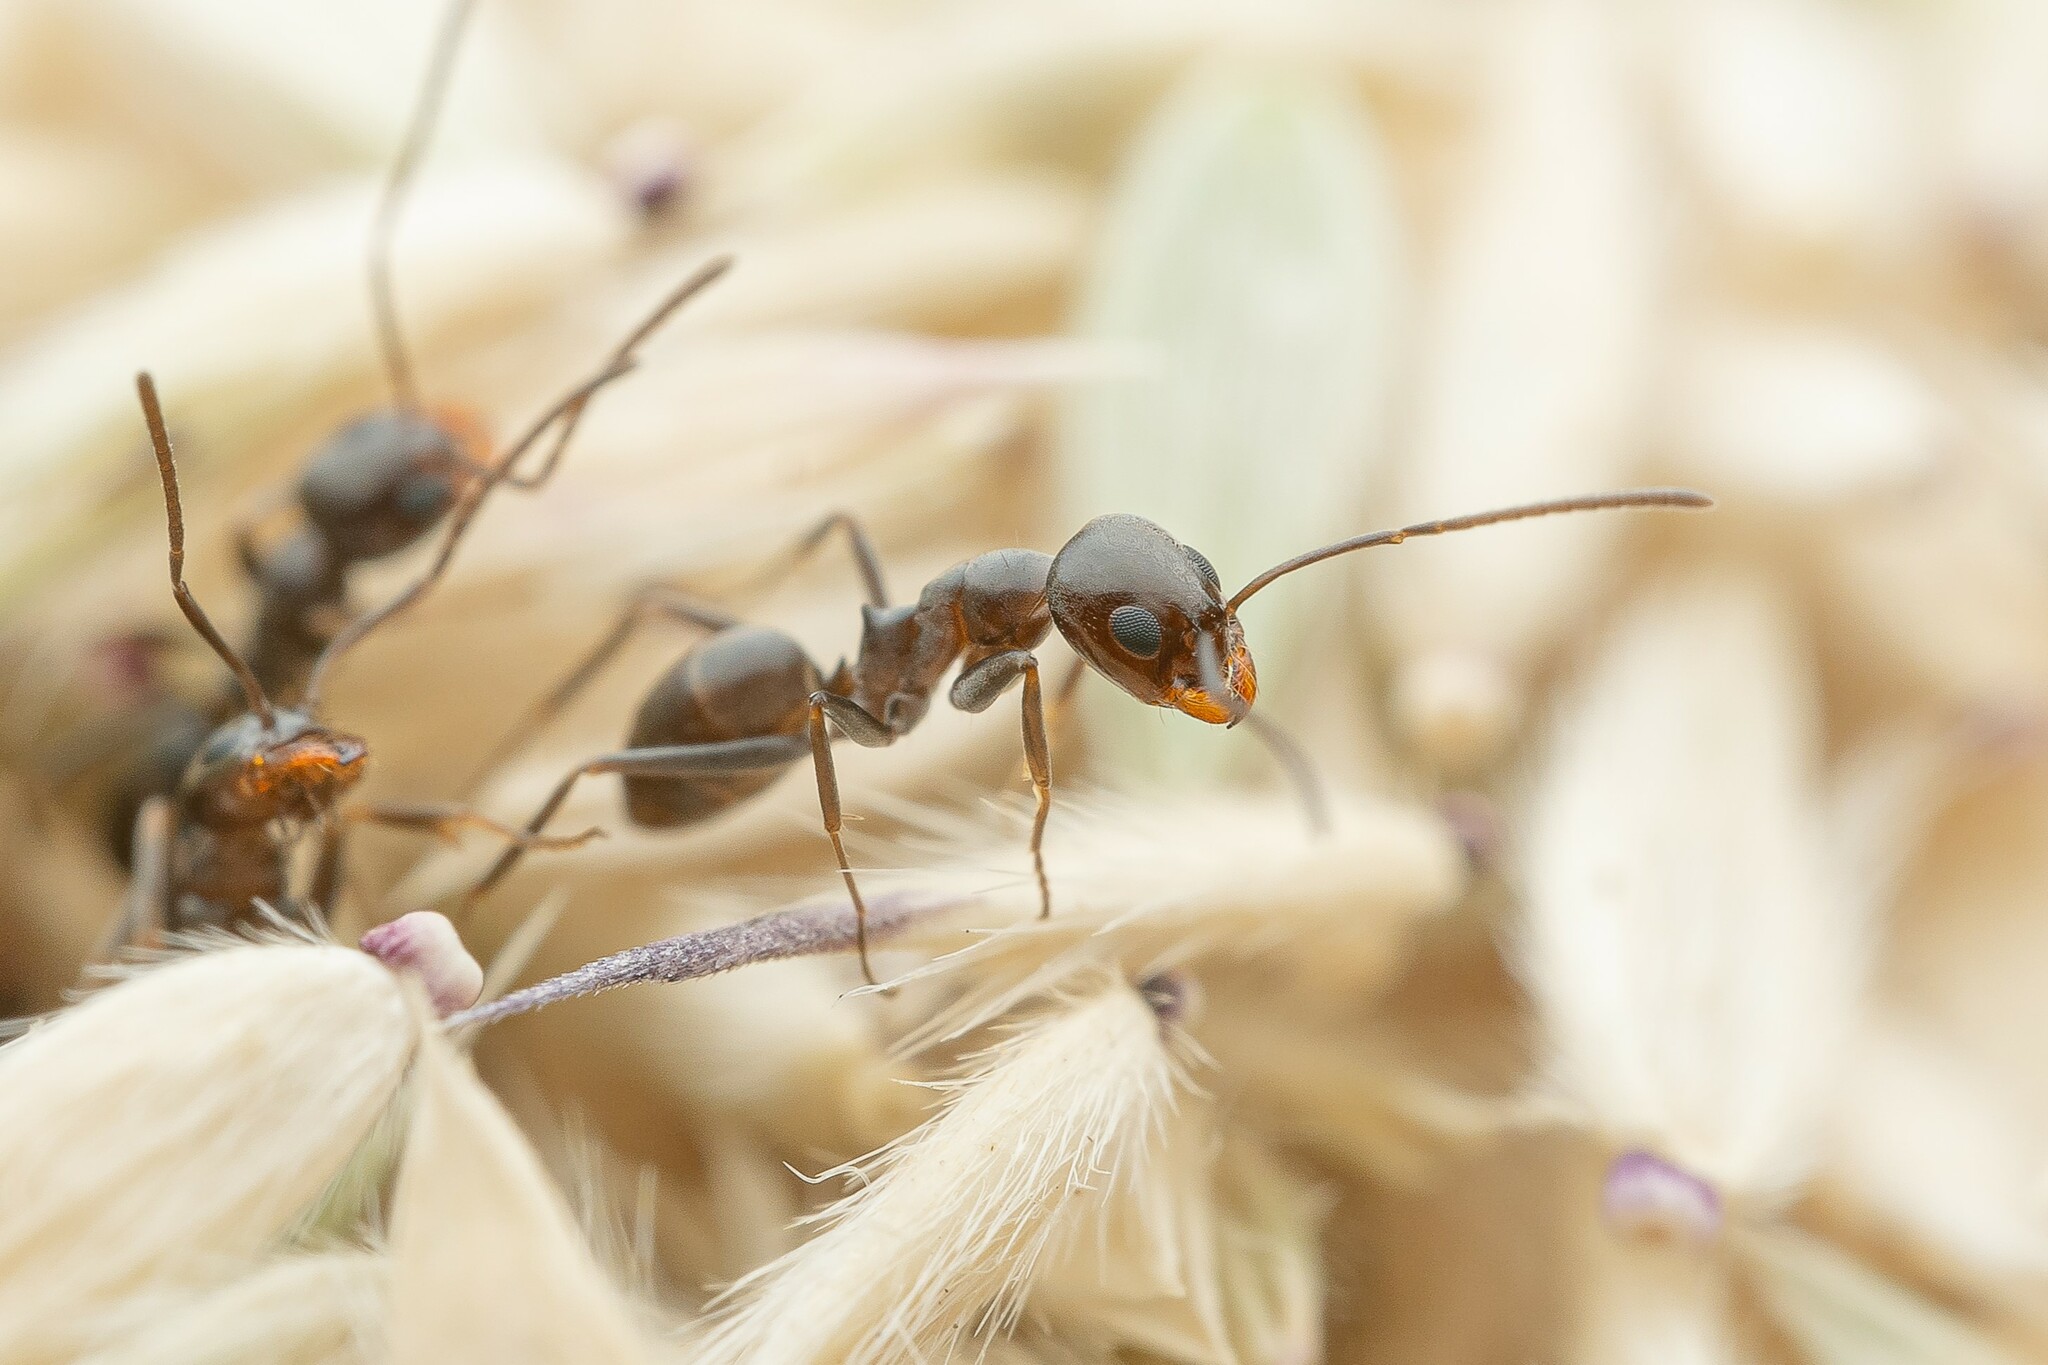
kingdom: Animalia
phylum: Arthropoda
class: Insecta
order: Hymenoptera
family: Formicidae
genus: Dorymyrmex
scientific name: Dorymyrmex insanus
